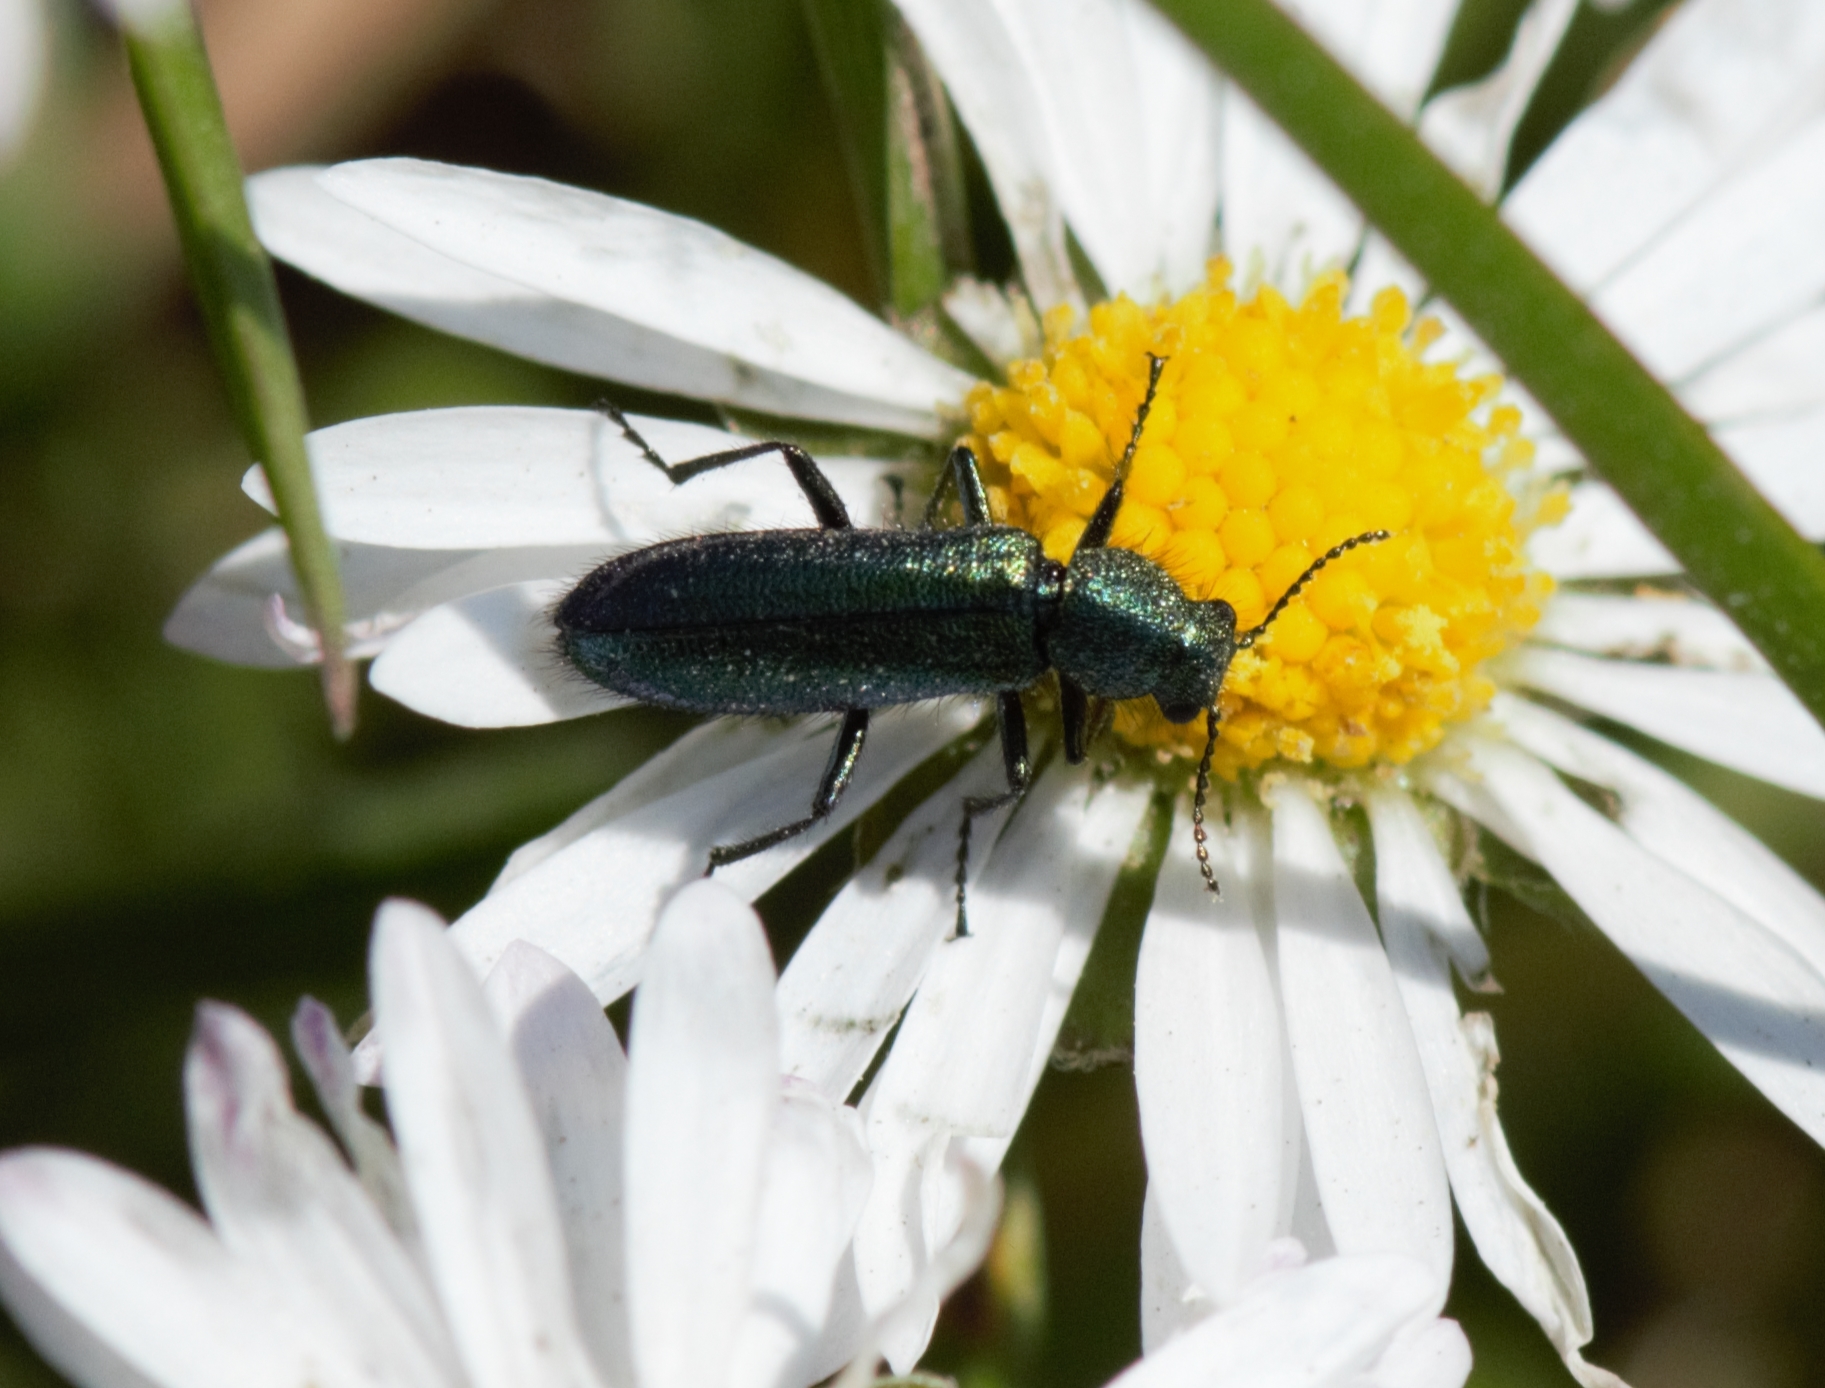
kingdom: Animalia
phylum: Arthropoda
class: Insecta
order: Coleoptera
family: Dasytidae
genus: Psilothrix
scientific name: Psilothrix viridicoerulea
